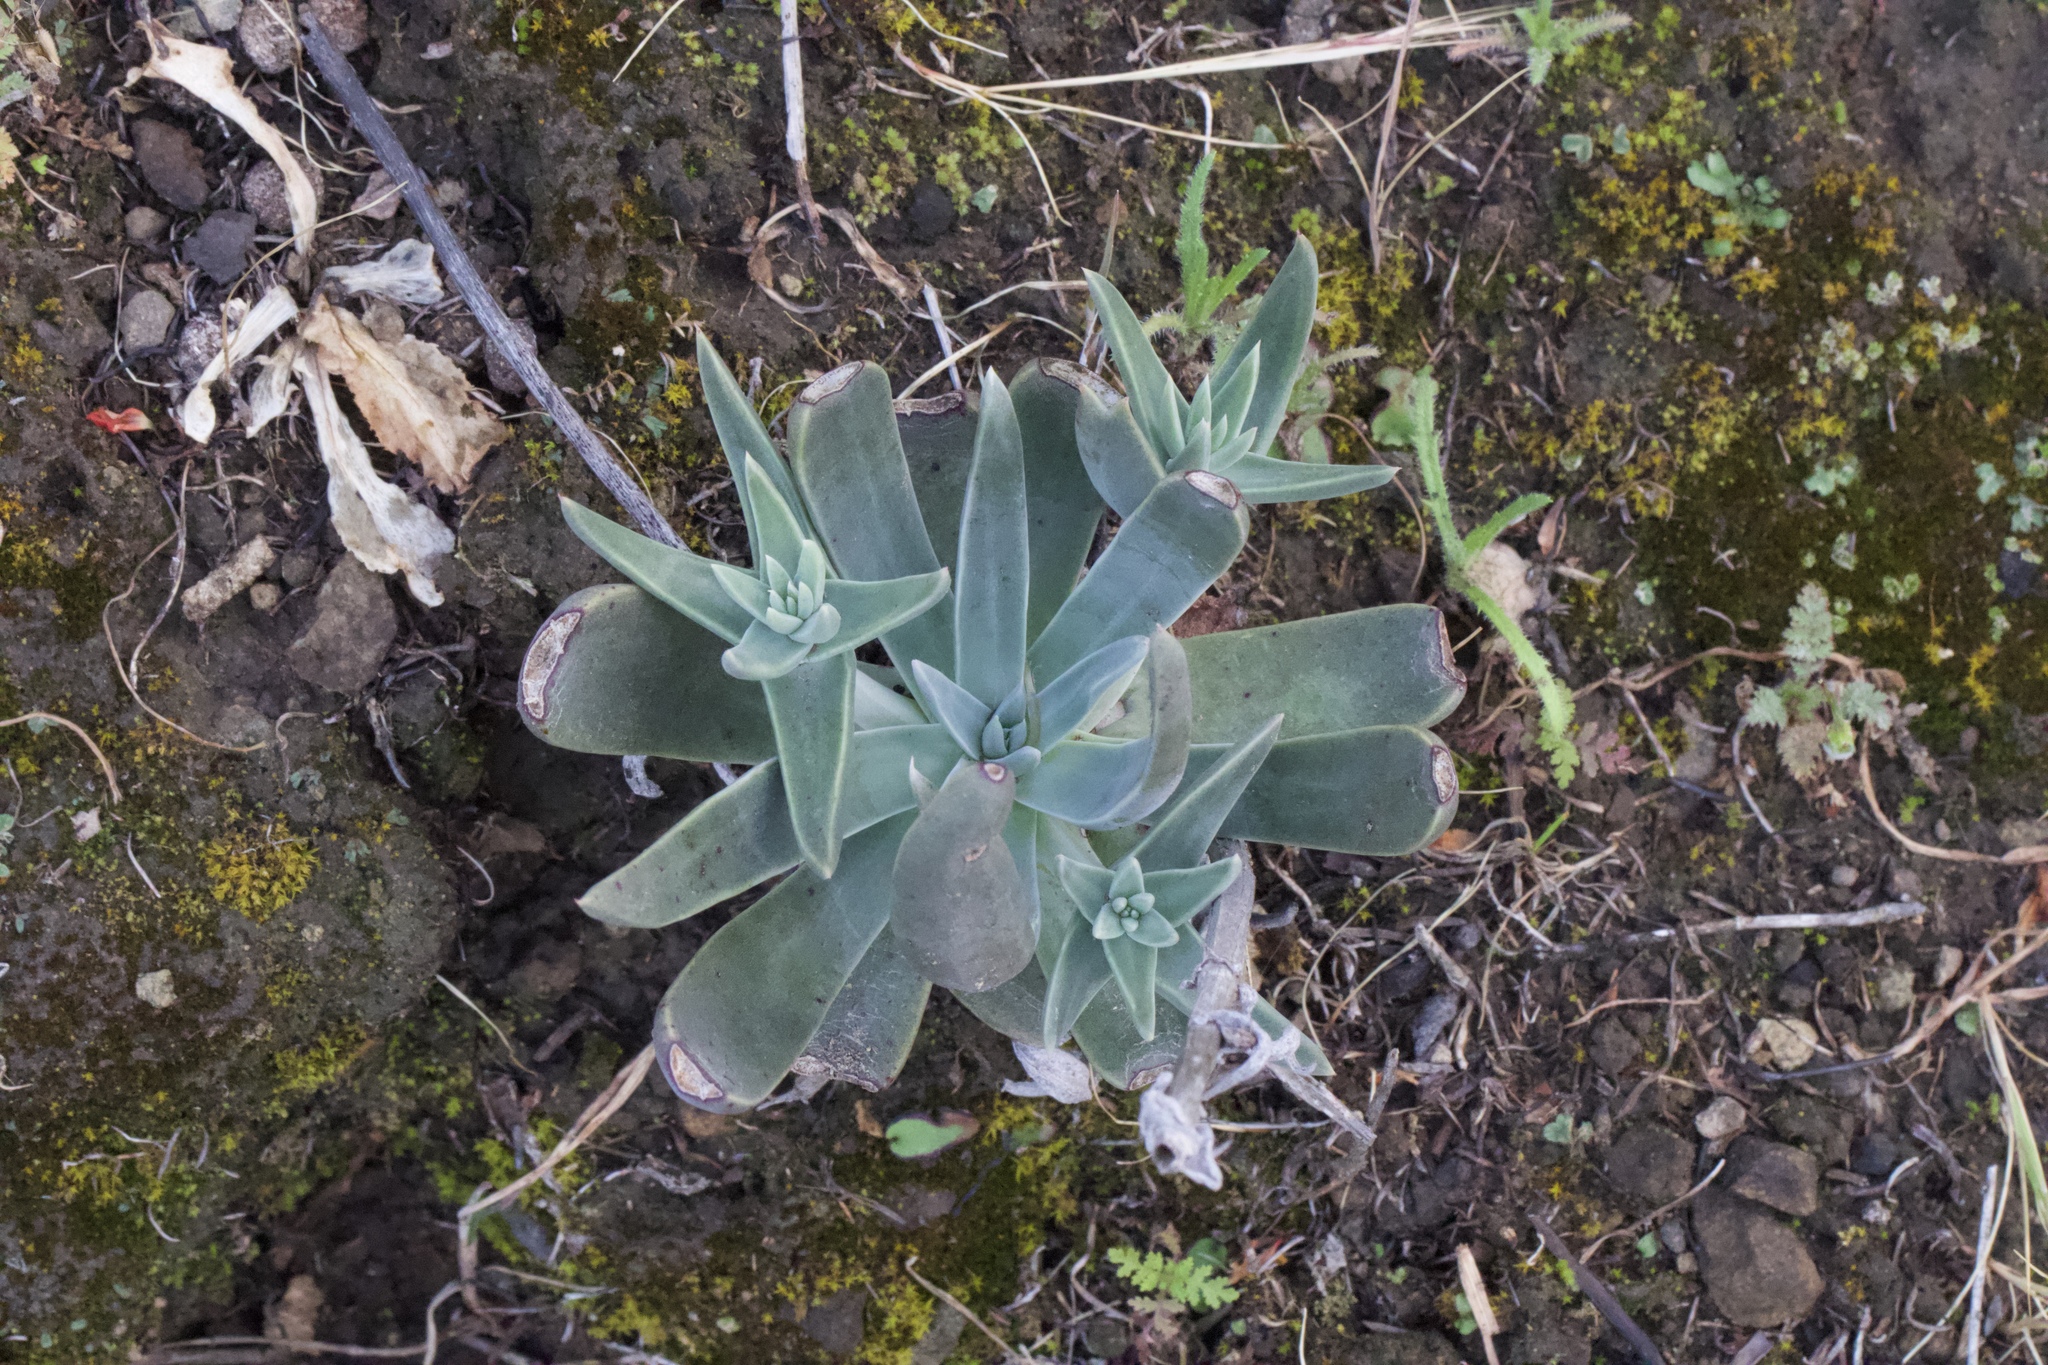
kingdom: Plantae
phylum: Tracheophyta
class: Magnoliopsida
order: Saxifragales
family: Crassulaceae
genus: Dudleya
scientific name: Dudleya lanceolata
